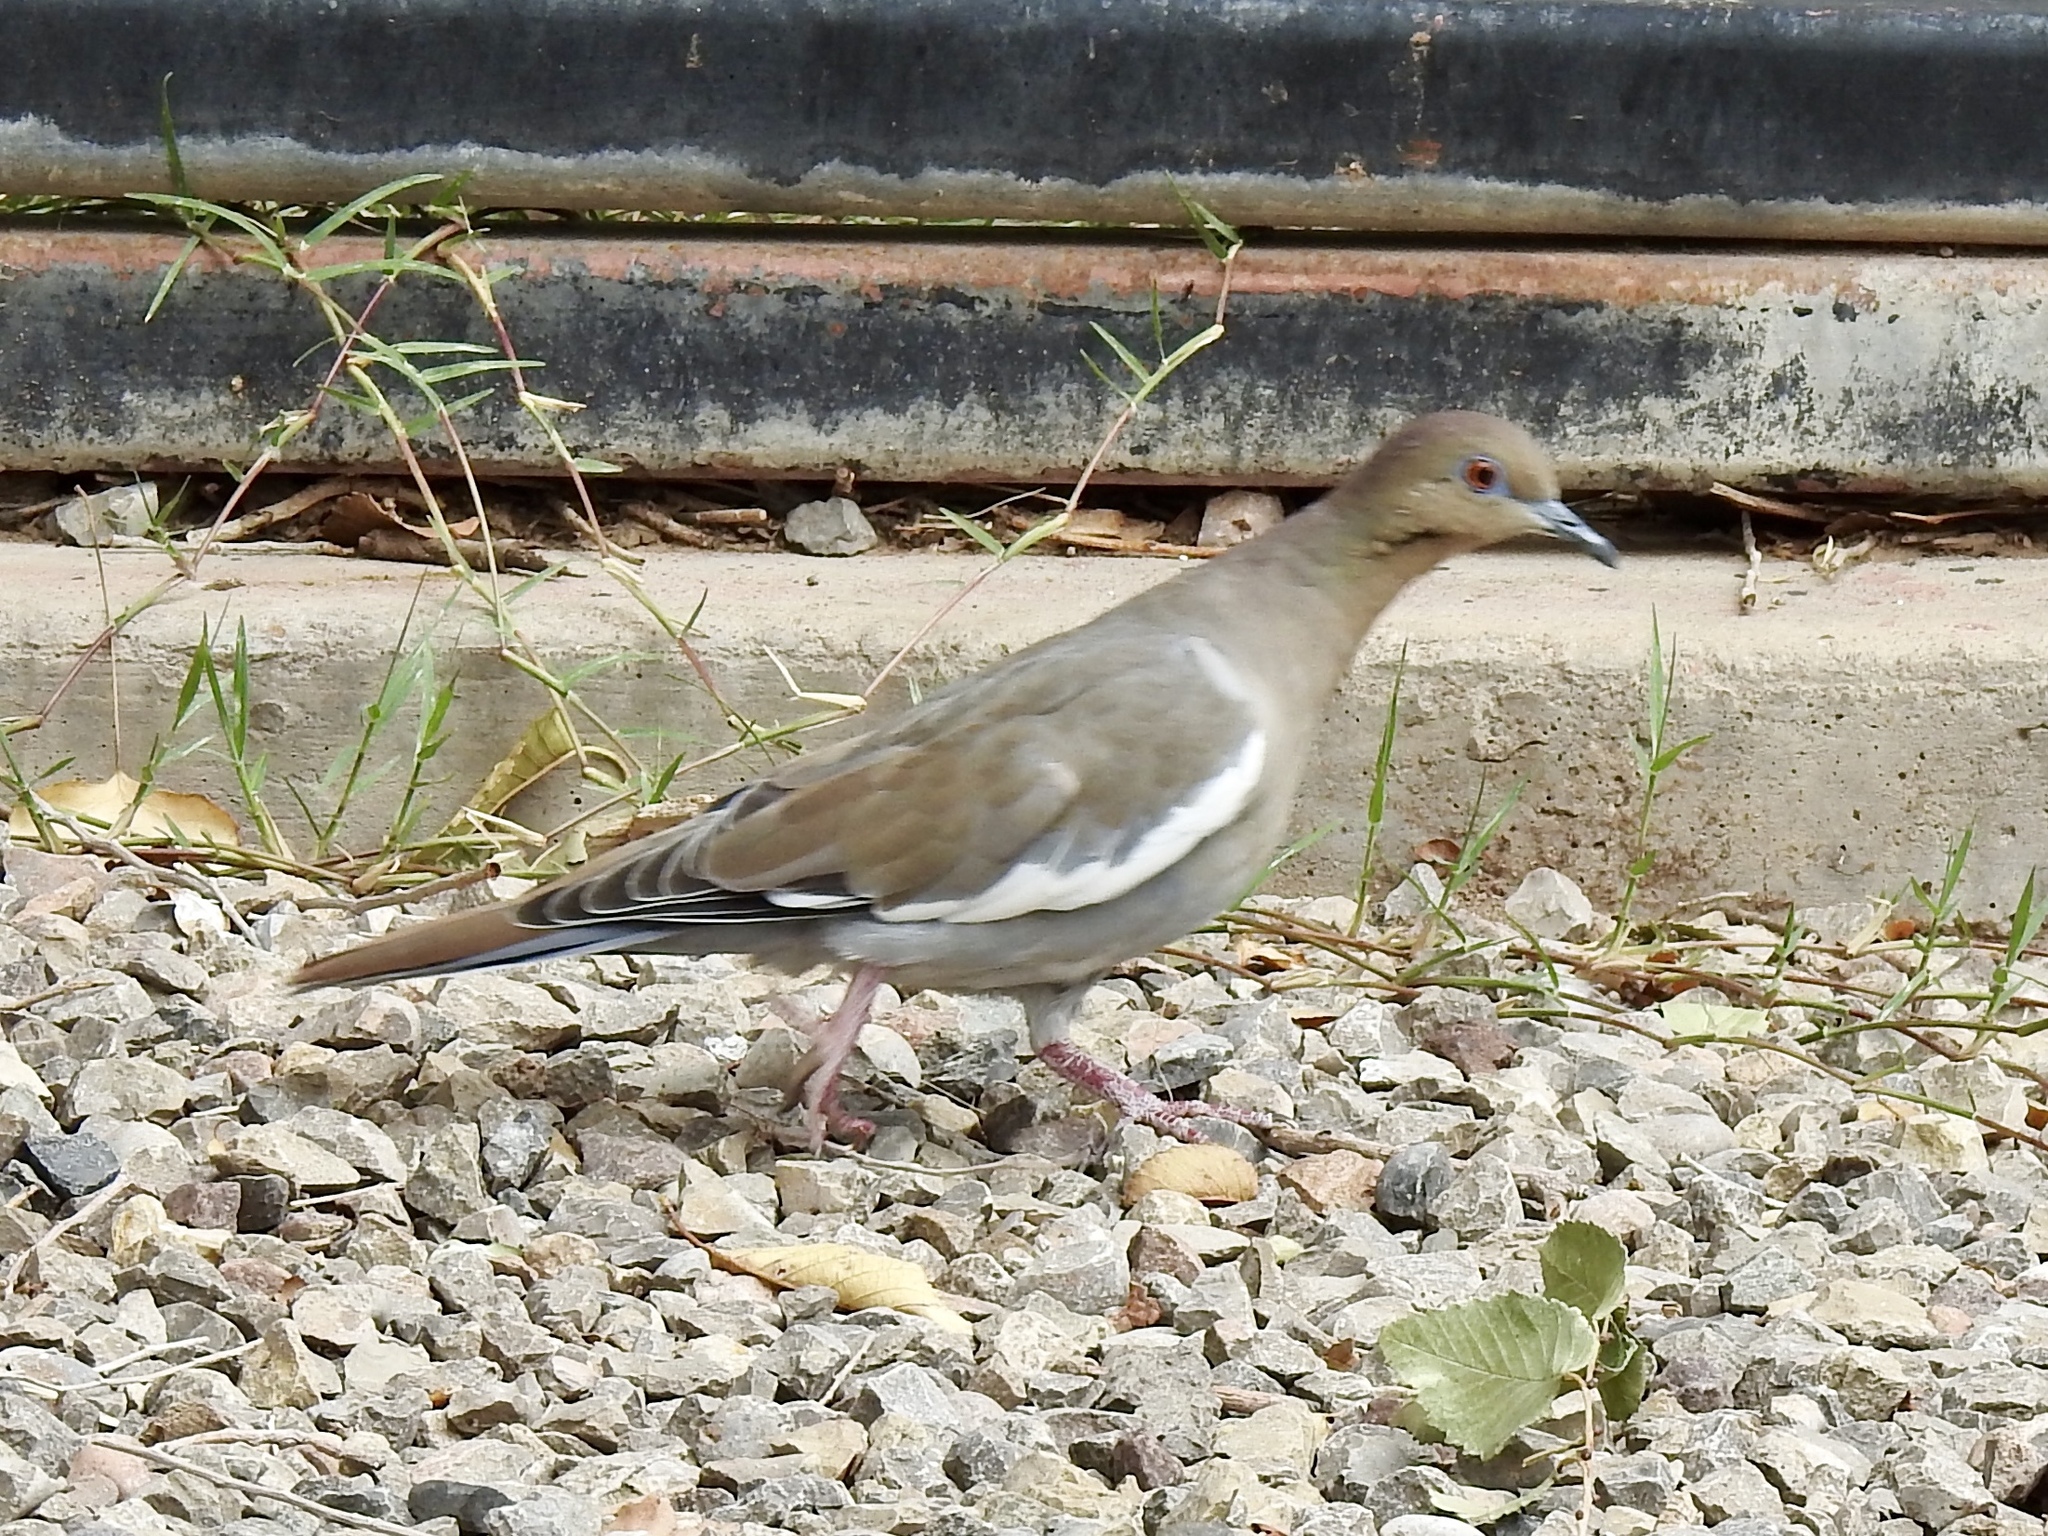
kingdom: Animalia
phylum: Chordata
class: Aves
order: Columbiformes
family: Columbidae
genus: Zenaida
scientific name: Zenaida asiatica
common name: White-winged dove
